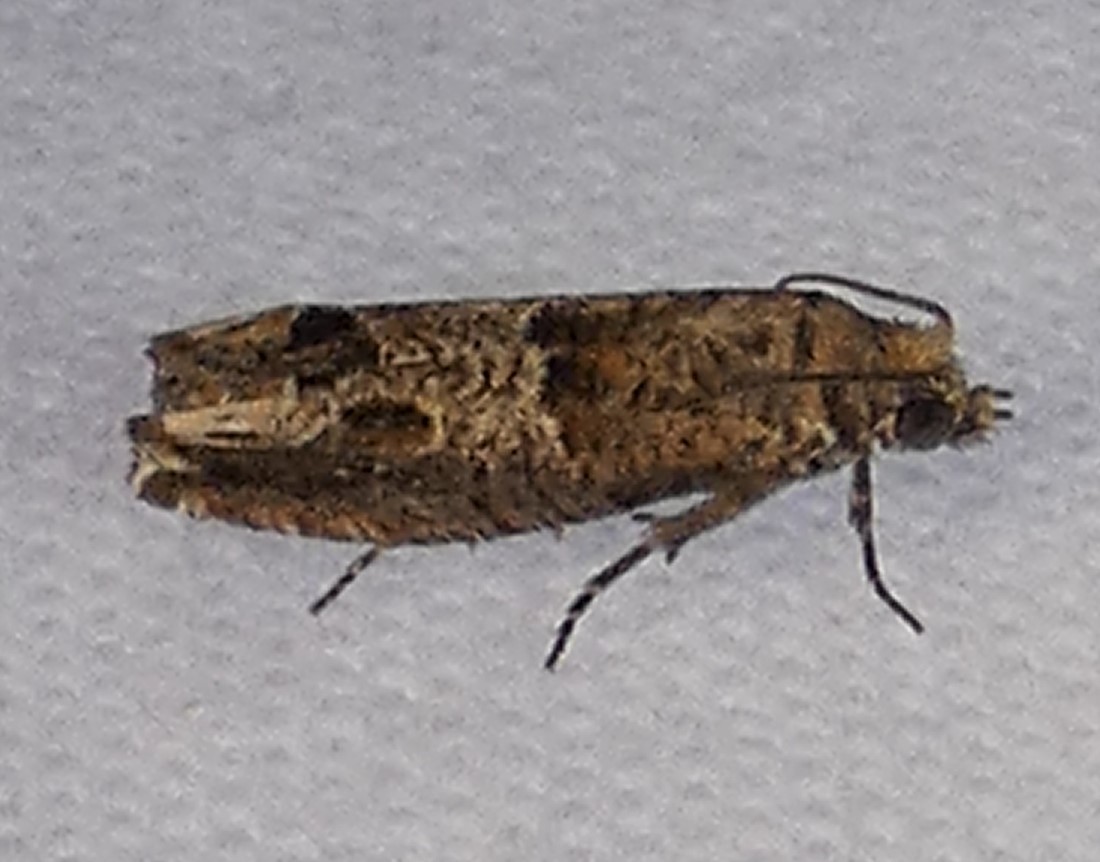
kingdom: Animalia
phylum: Arthropoda
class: Insecta
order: Lepidoptera
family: Tortricidae
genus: Sonia
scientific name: Sonia constrictana
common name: Constricted sonia moth
